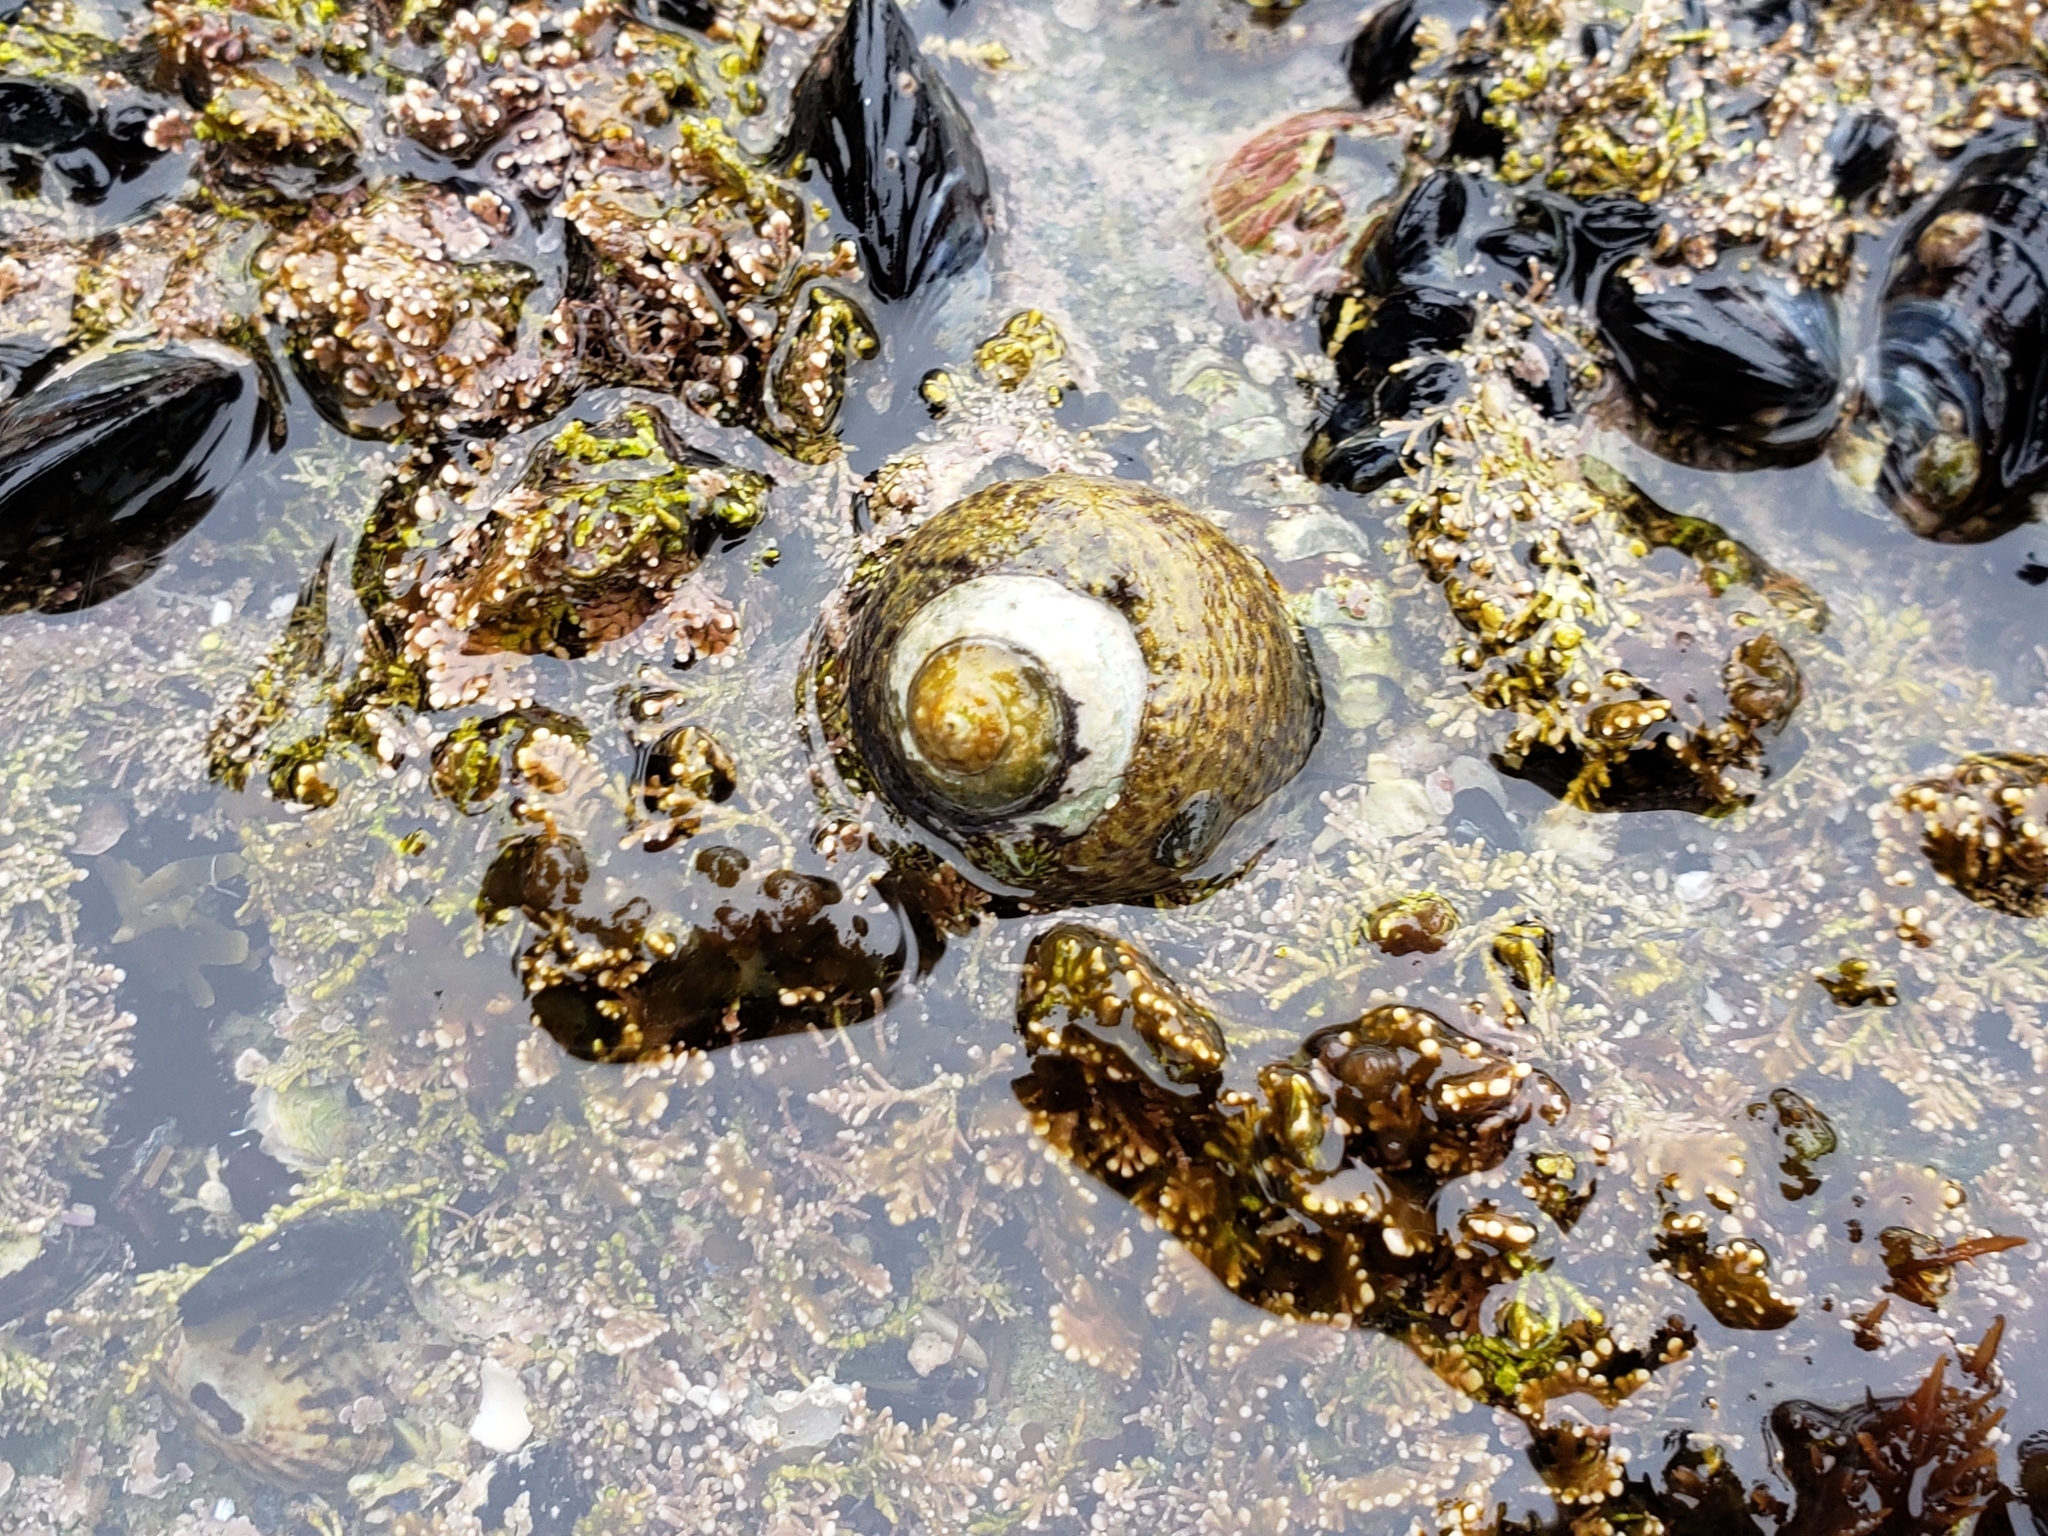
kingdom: Animalia
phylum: Mollusca
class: Gastropoda
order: Trochida
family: Tegulidae
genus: Tegula
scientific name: Tegula gallina
